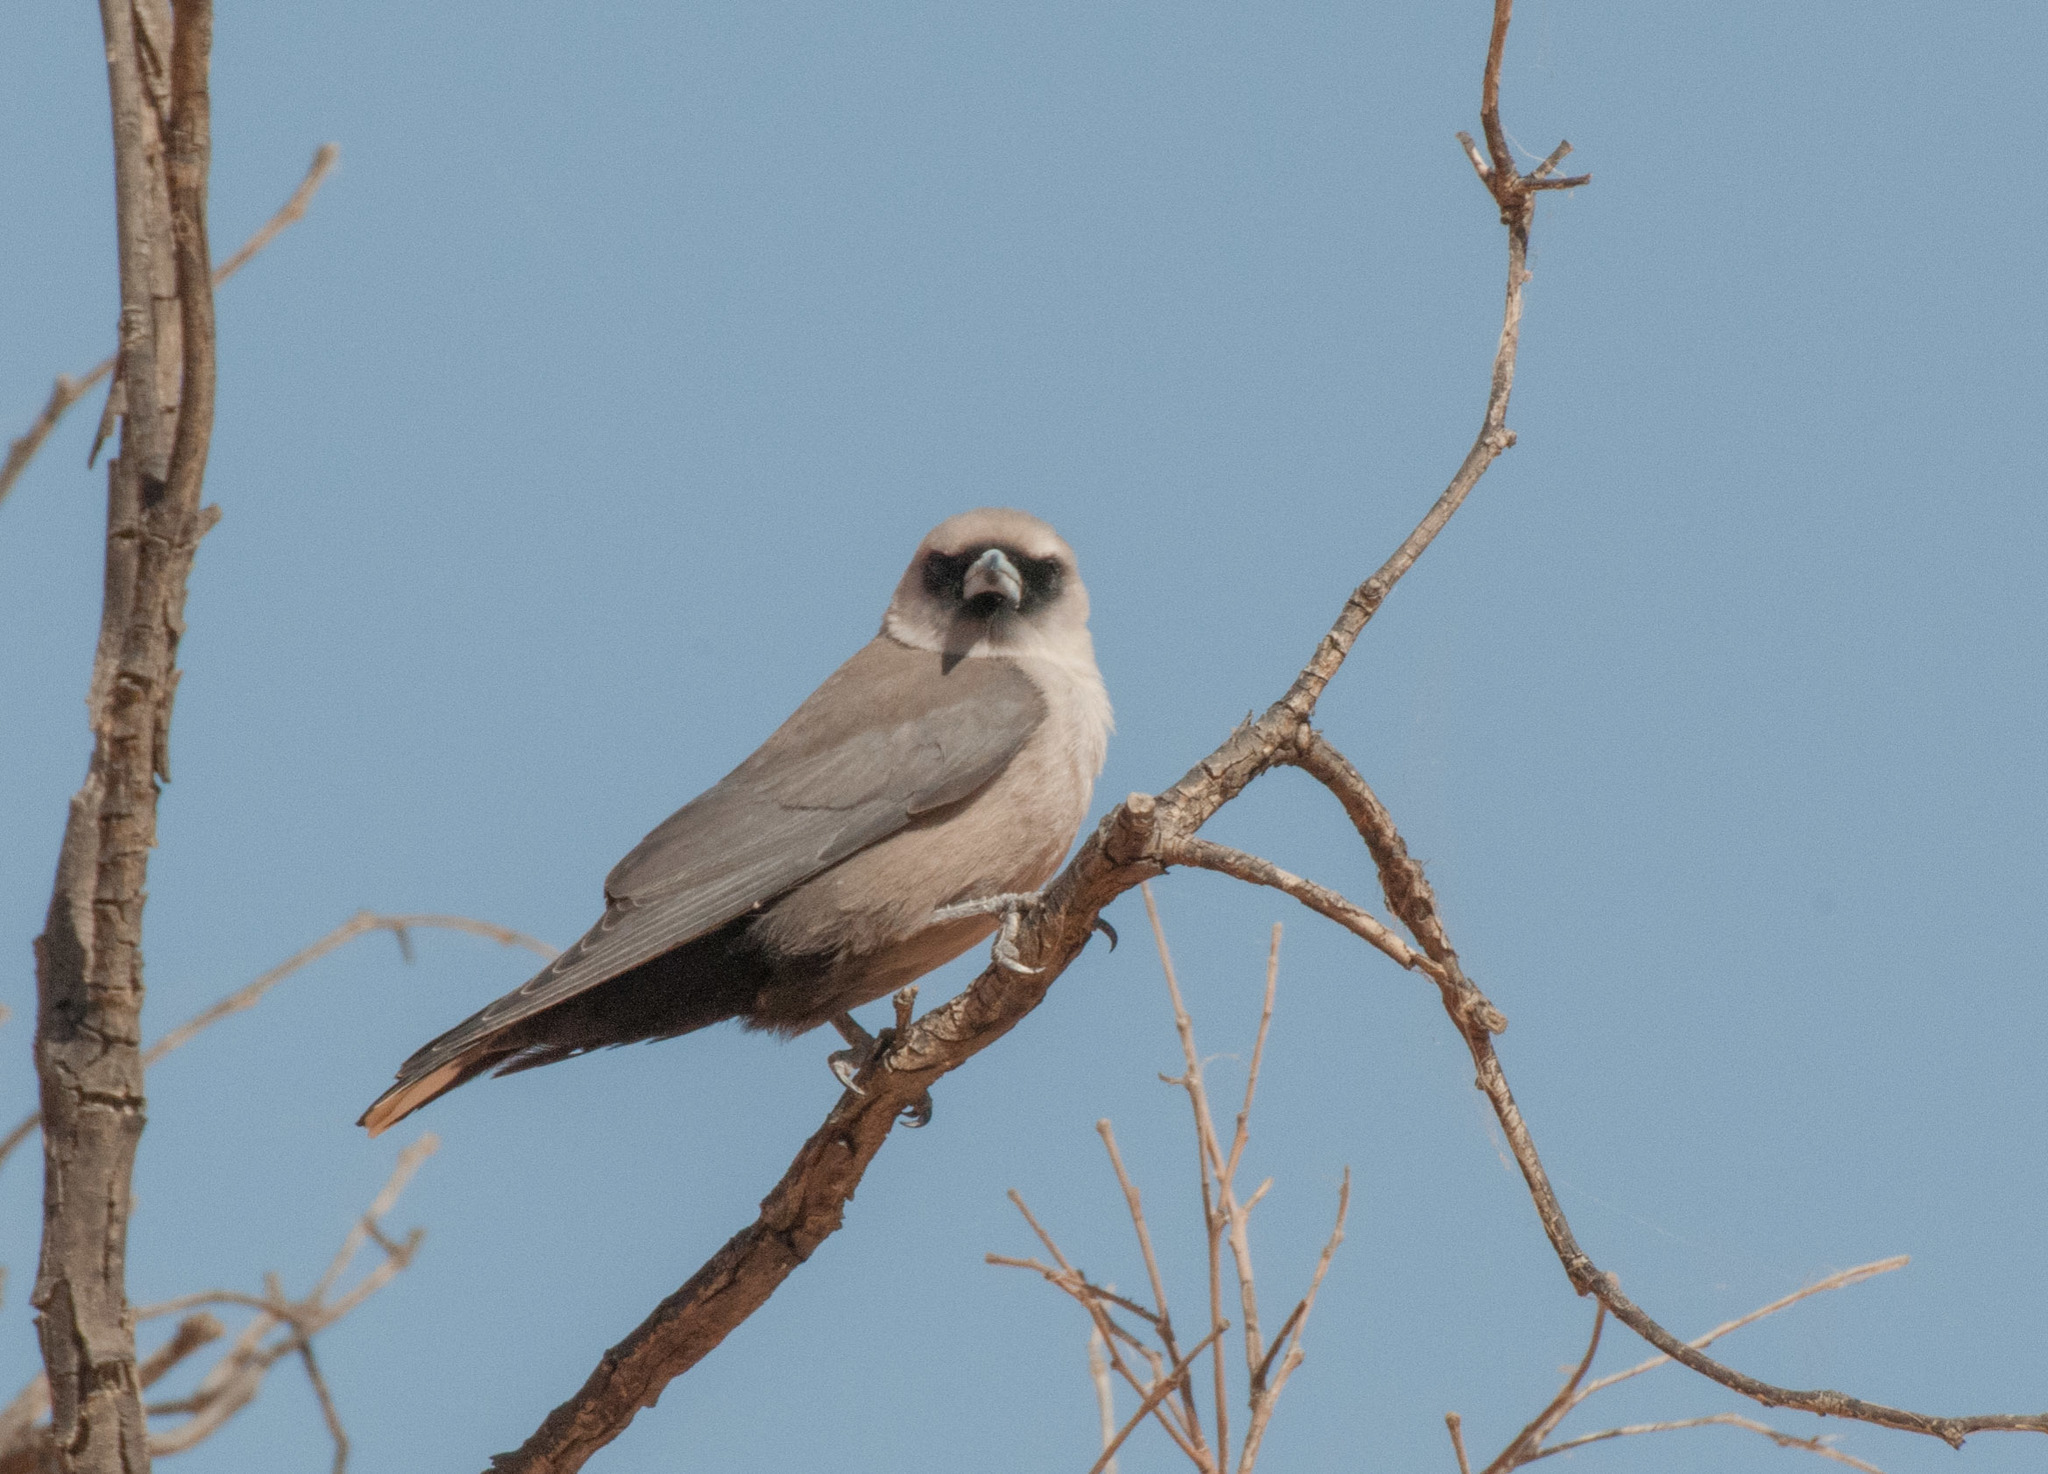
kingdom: Animalia
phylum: Chordata
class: Aves
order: Passeriformes
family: Artamidae
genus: Artamus
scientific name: Artamus cinereus
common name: Black-faced woodswallow
